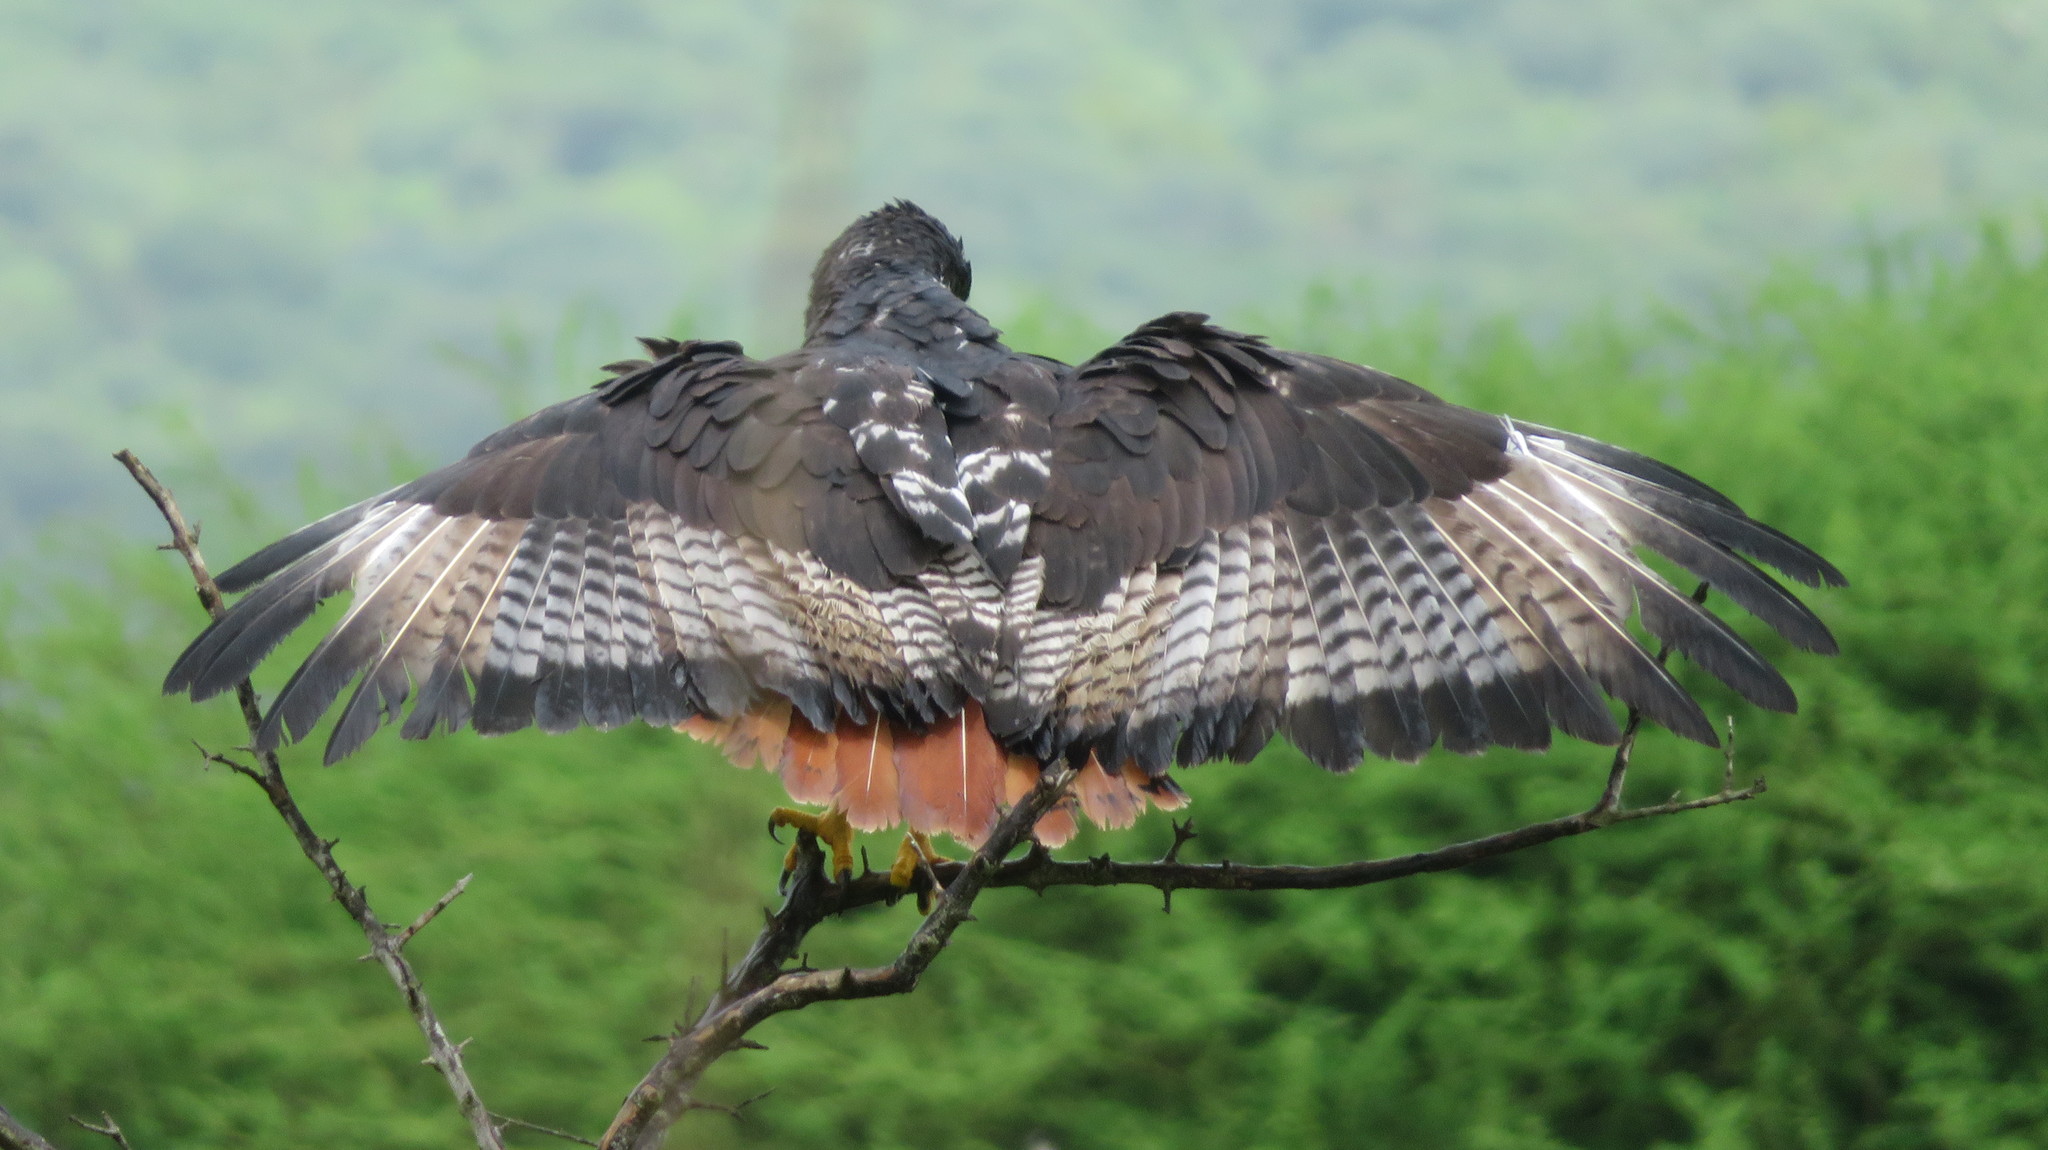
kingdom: Animalia
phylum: Chordata
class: Aves
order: Accipitriformes
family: Accipitridae
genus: Buteo
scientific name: Buteo augur
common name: Augur buzzard
